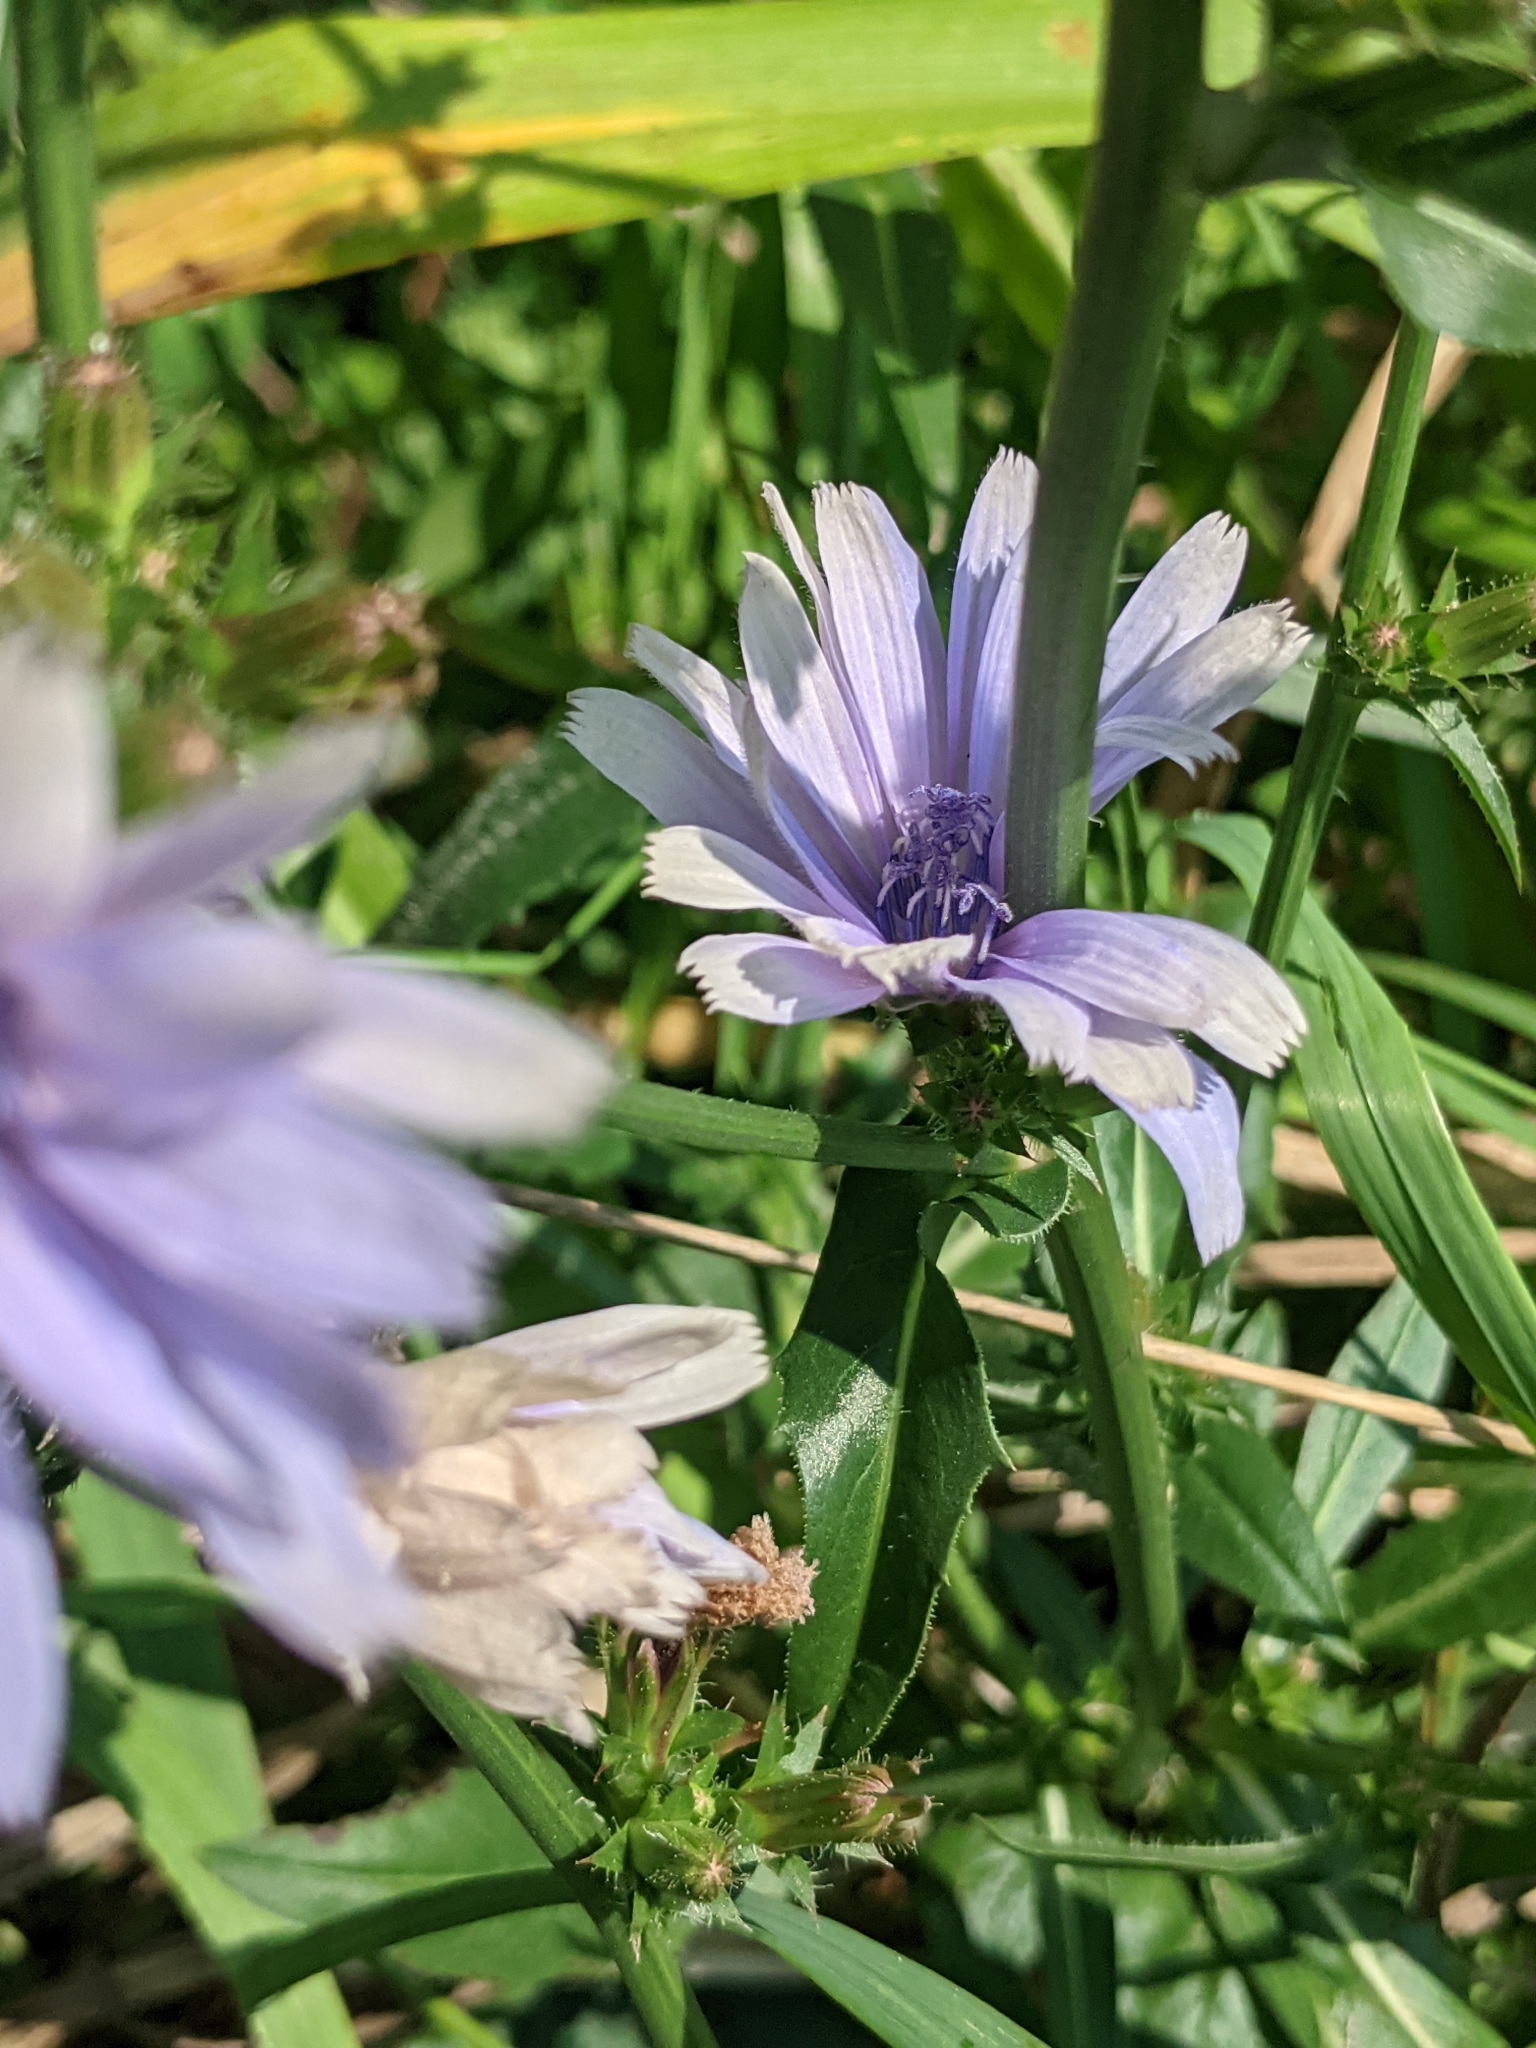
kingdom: Plantae
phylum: Tracheophyta
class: Magnoliopsida
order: Asterales
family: Asteraceae
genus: Cichorium
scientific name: Cichorium intybus
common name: Chicory
